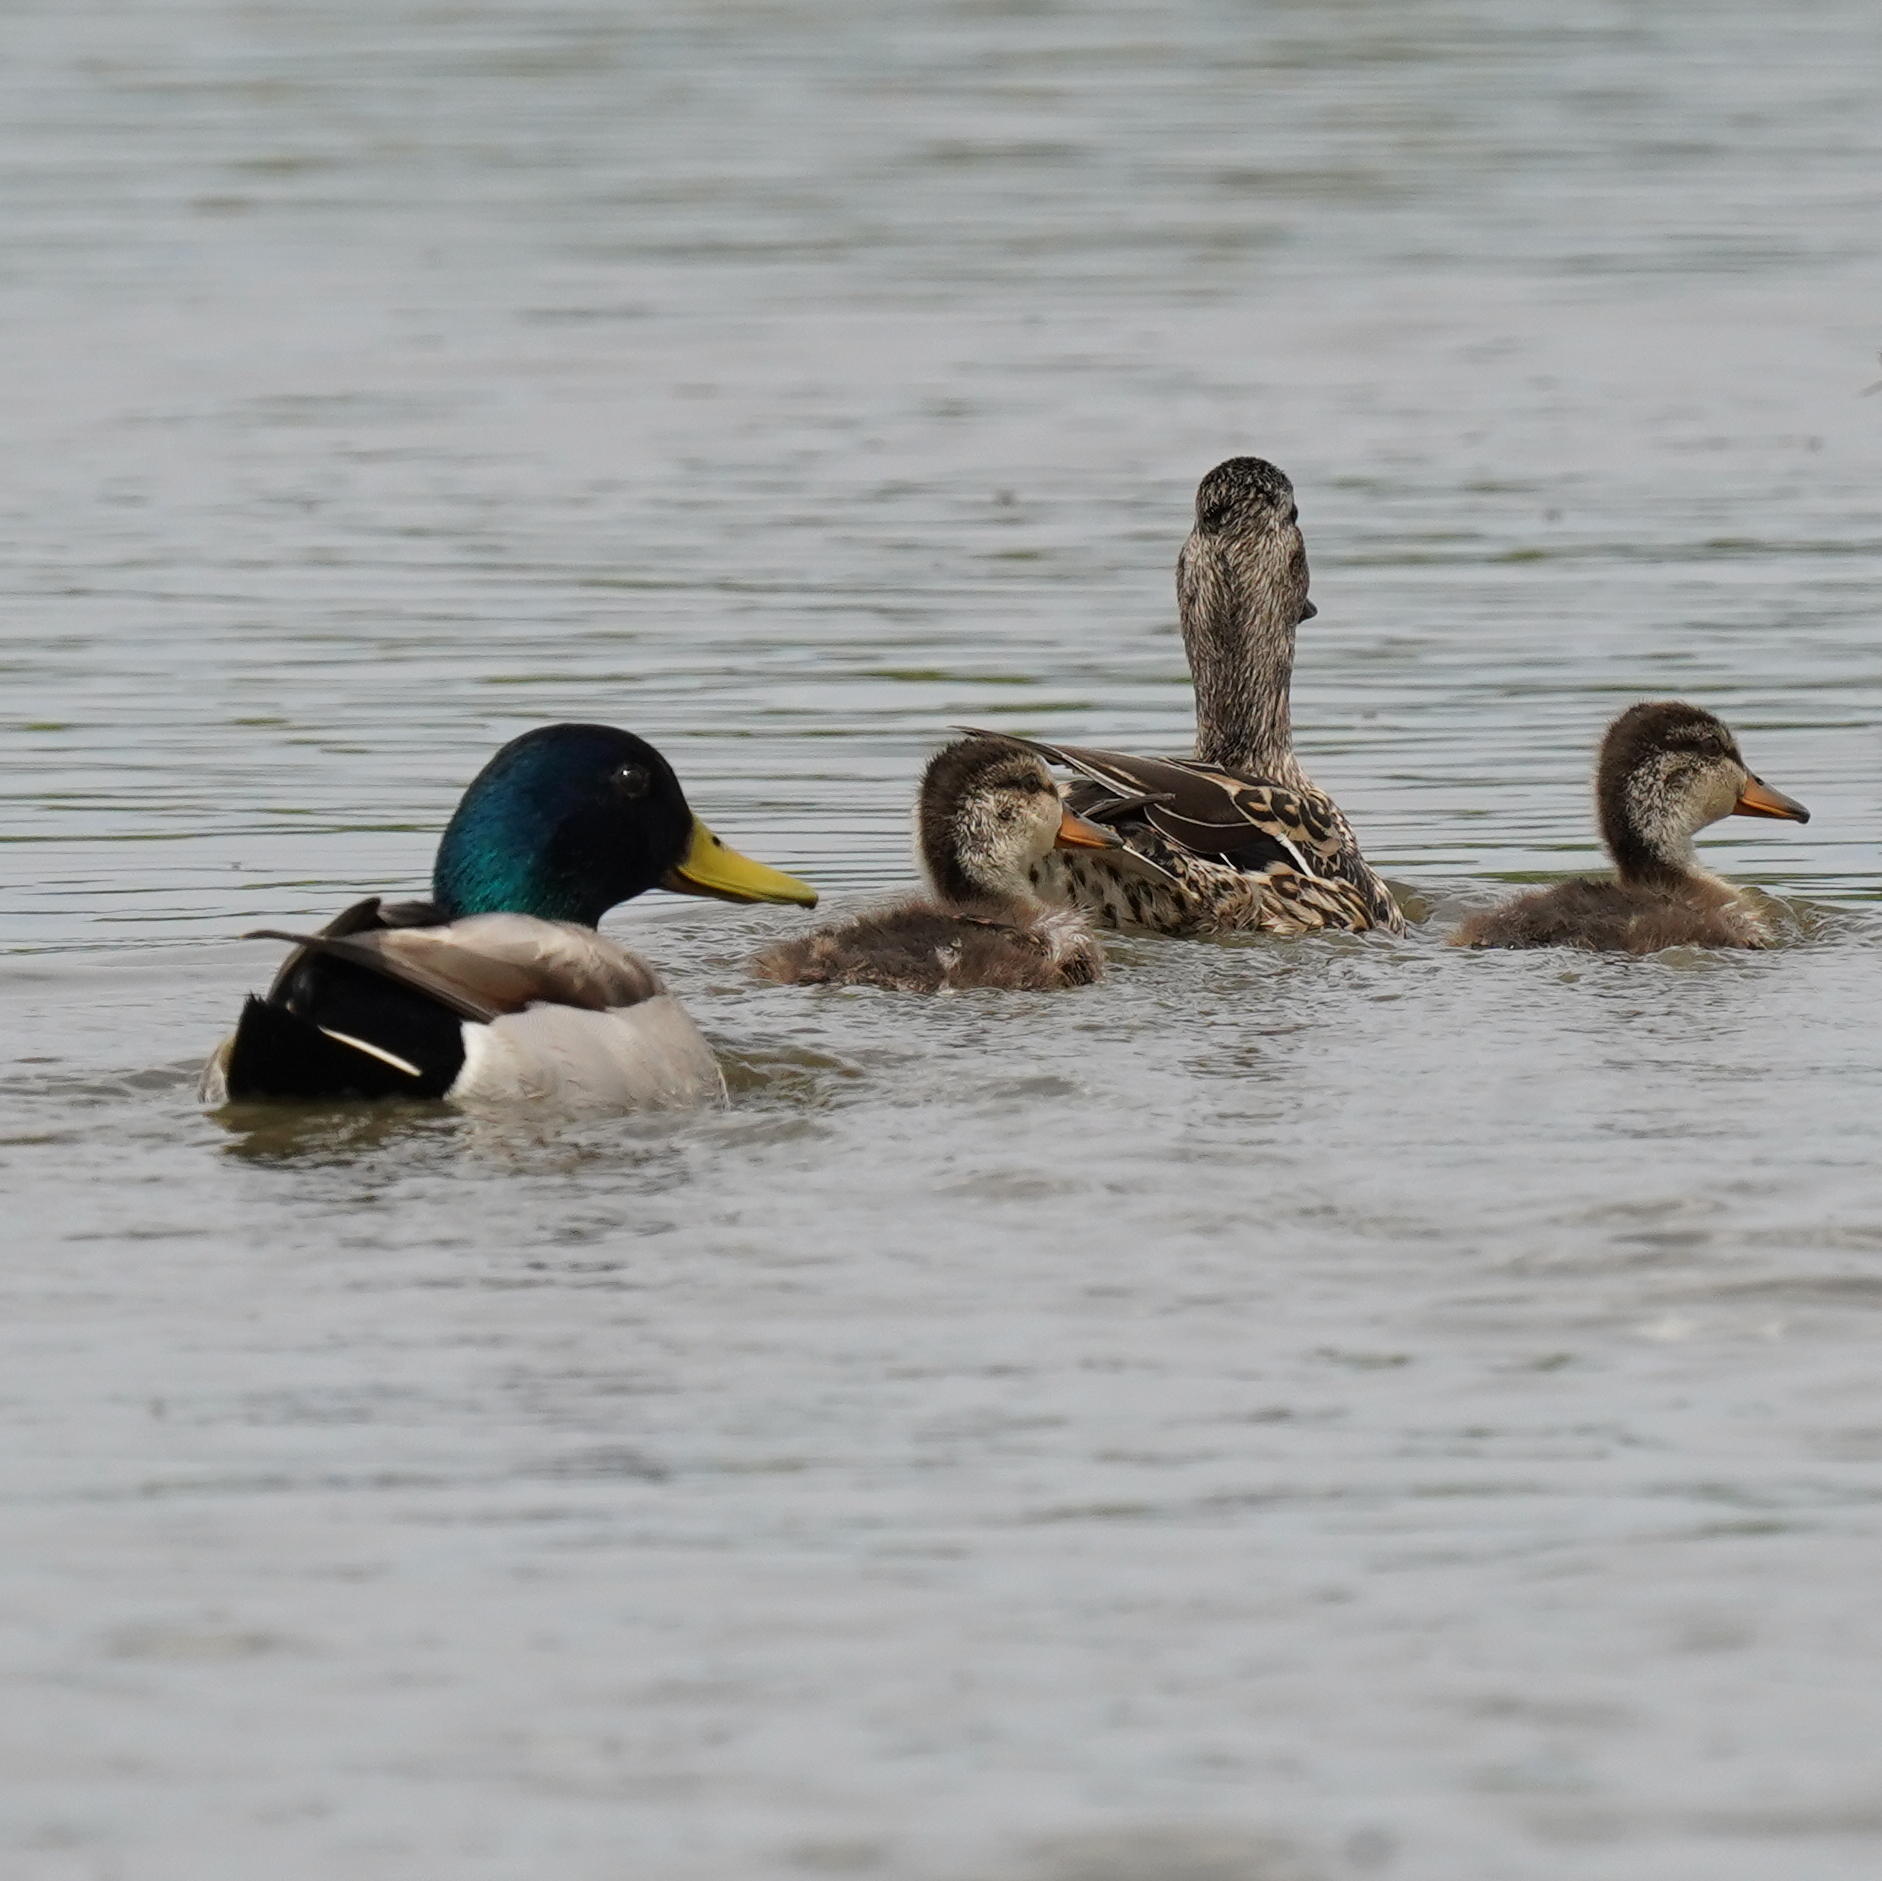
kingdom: Animalia
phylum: Chordata
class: Aves
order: Anseriformes
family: Anatidae
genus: Anas
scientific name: Anas platyrhynchos
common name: Mallard
